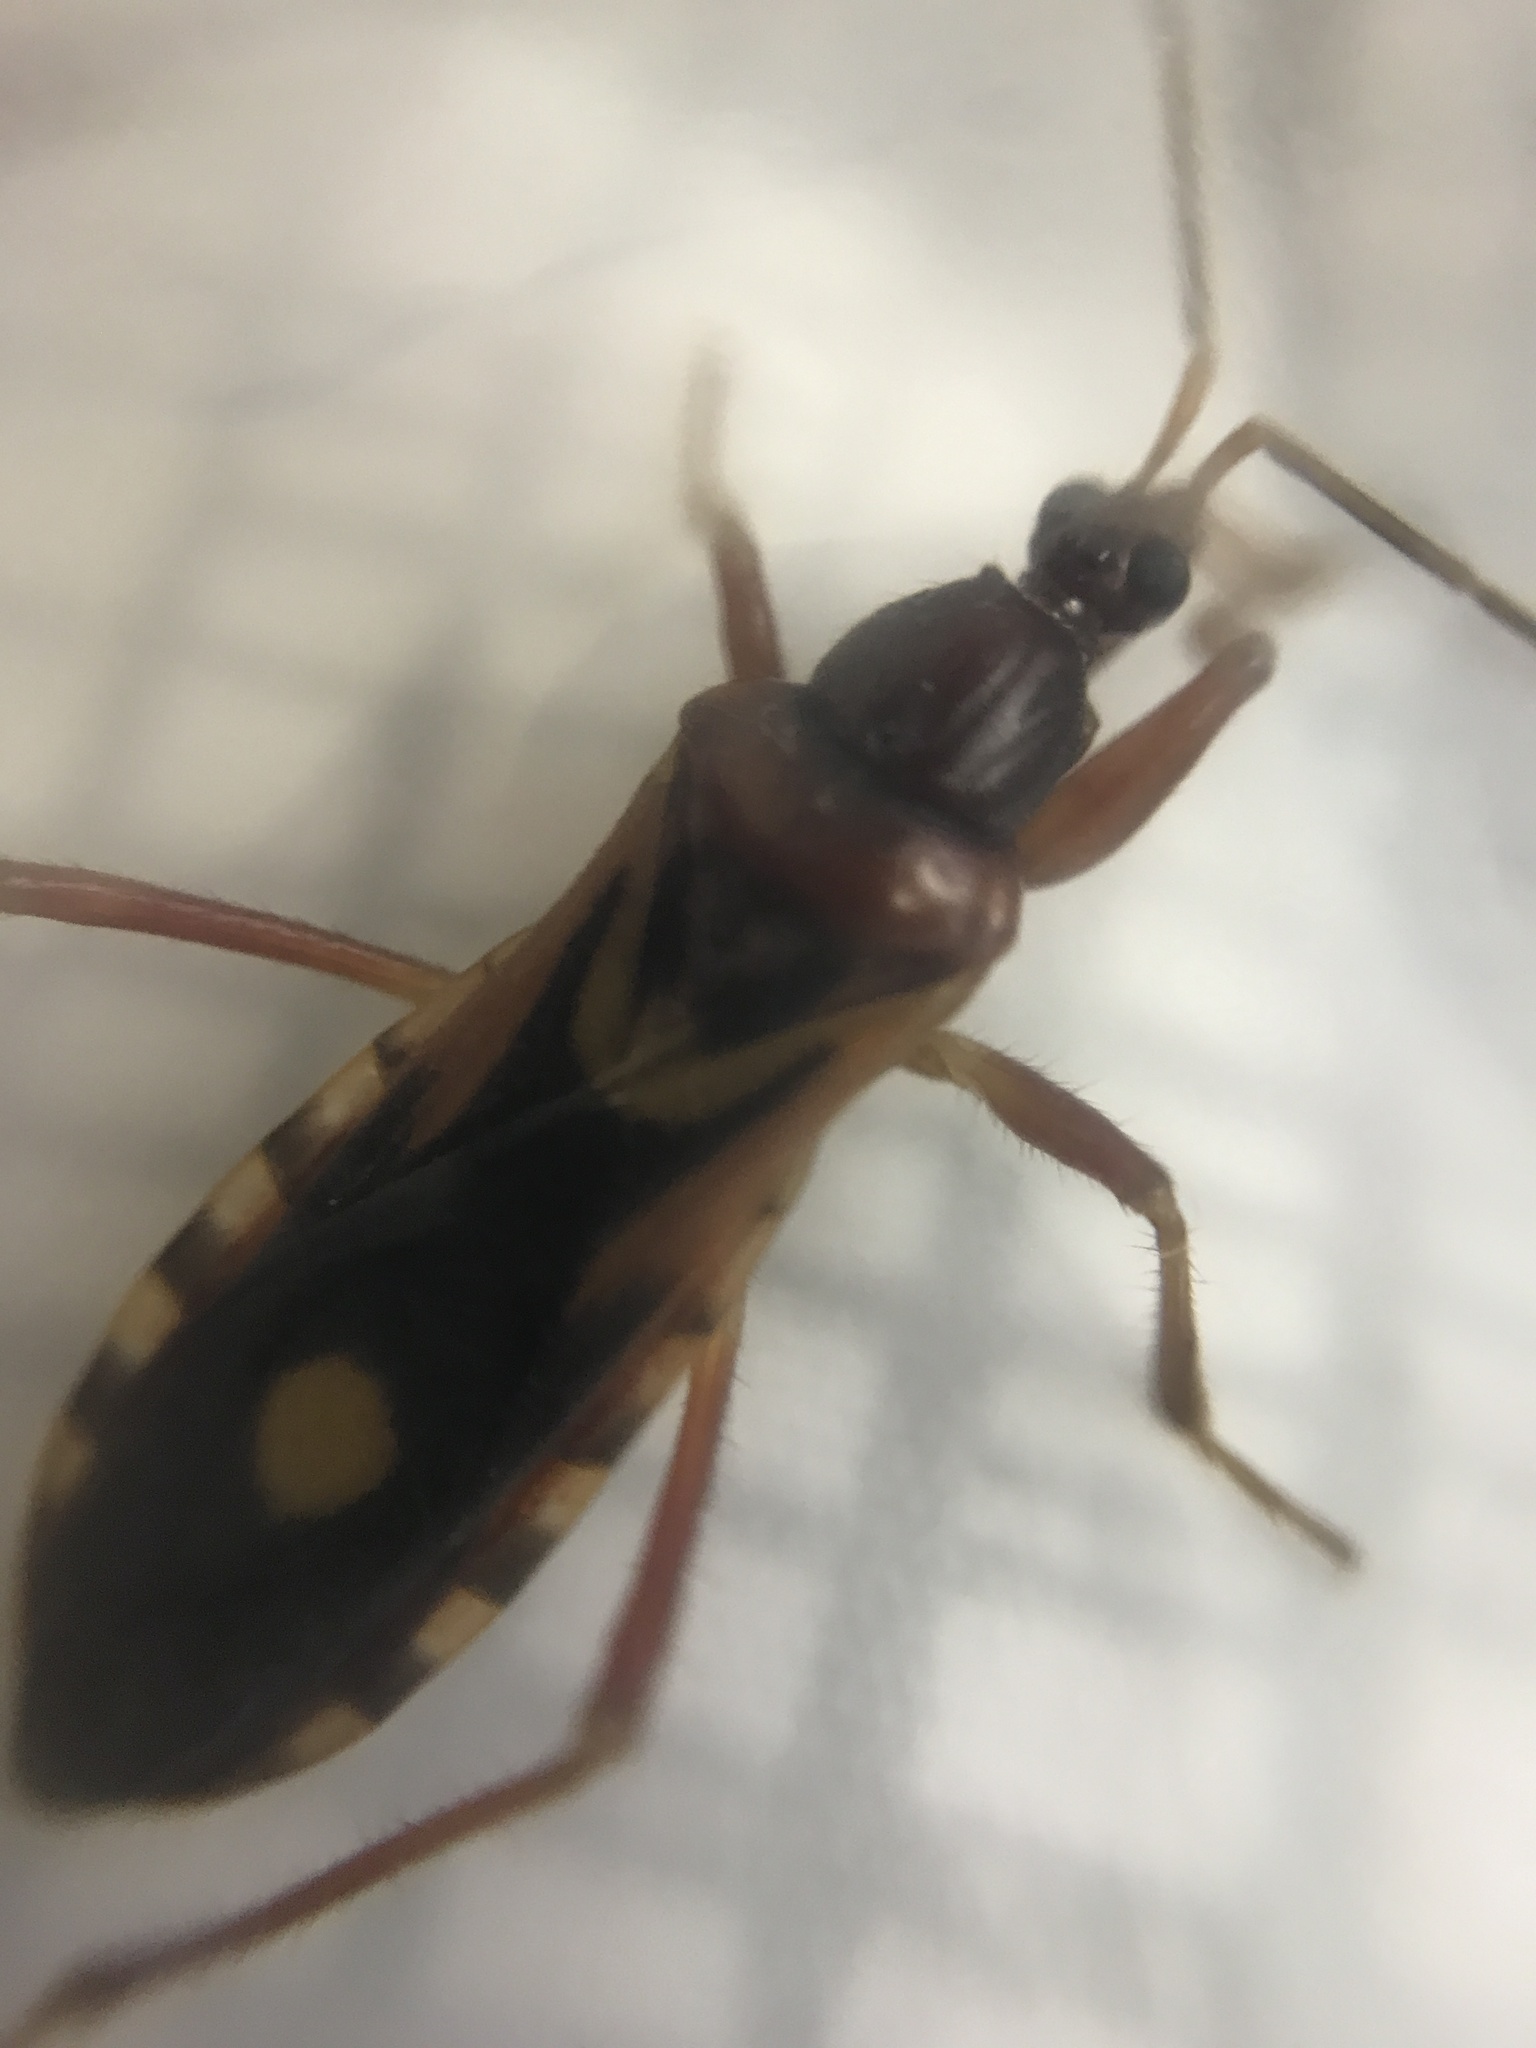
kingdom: Animalia
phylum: Arthropoda
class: Insecta
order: Hemiptera
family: Reduviidae
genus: Rasahus
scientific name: Rasahus thoracicus
